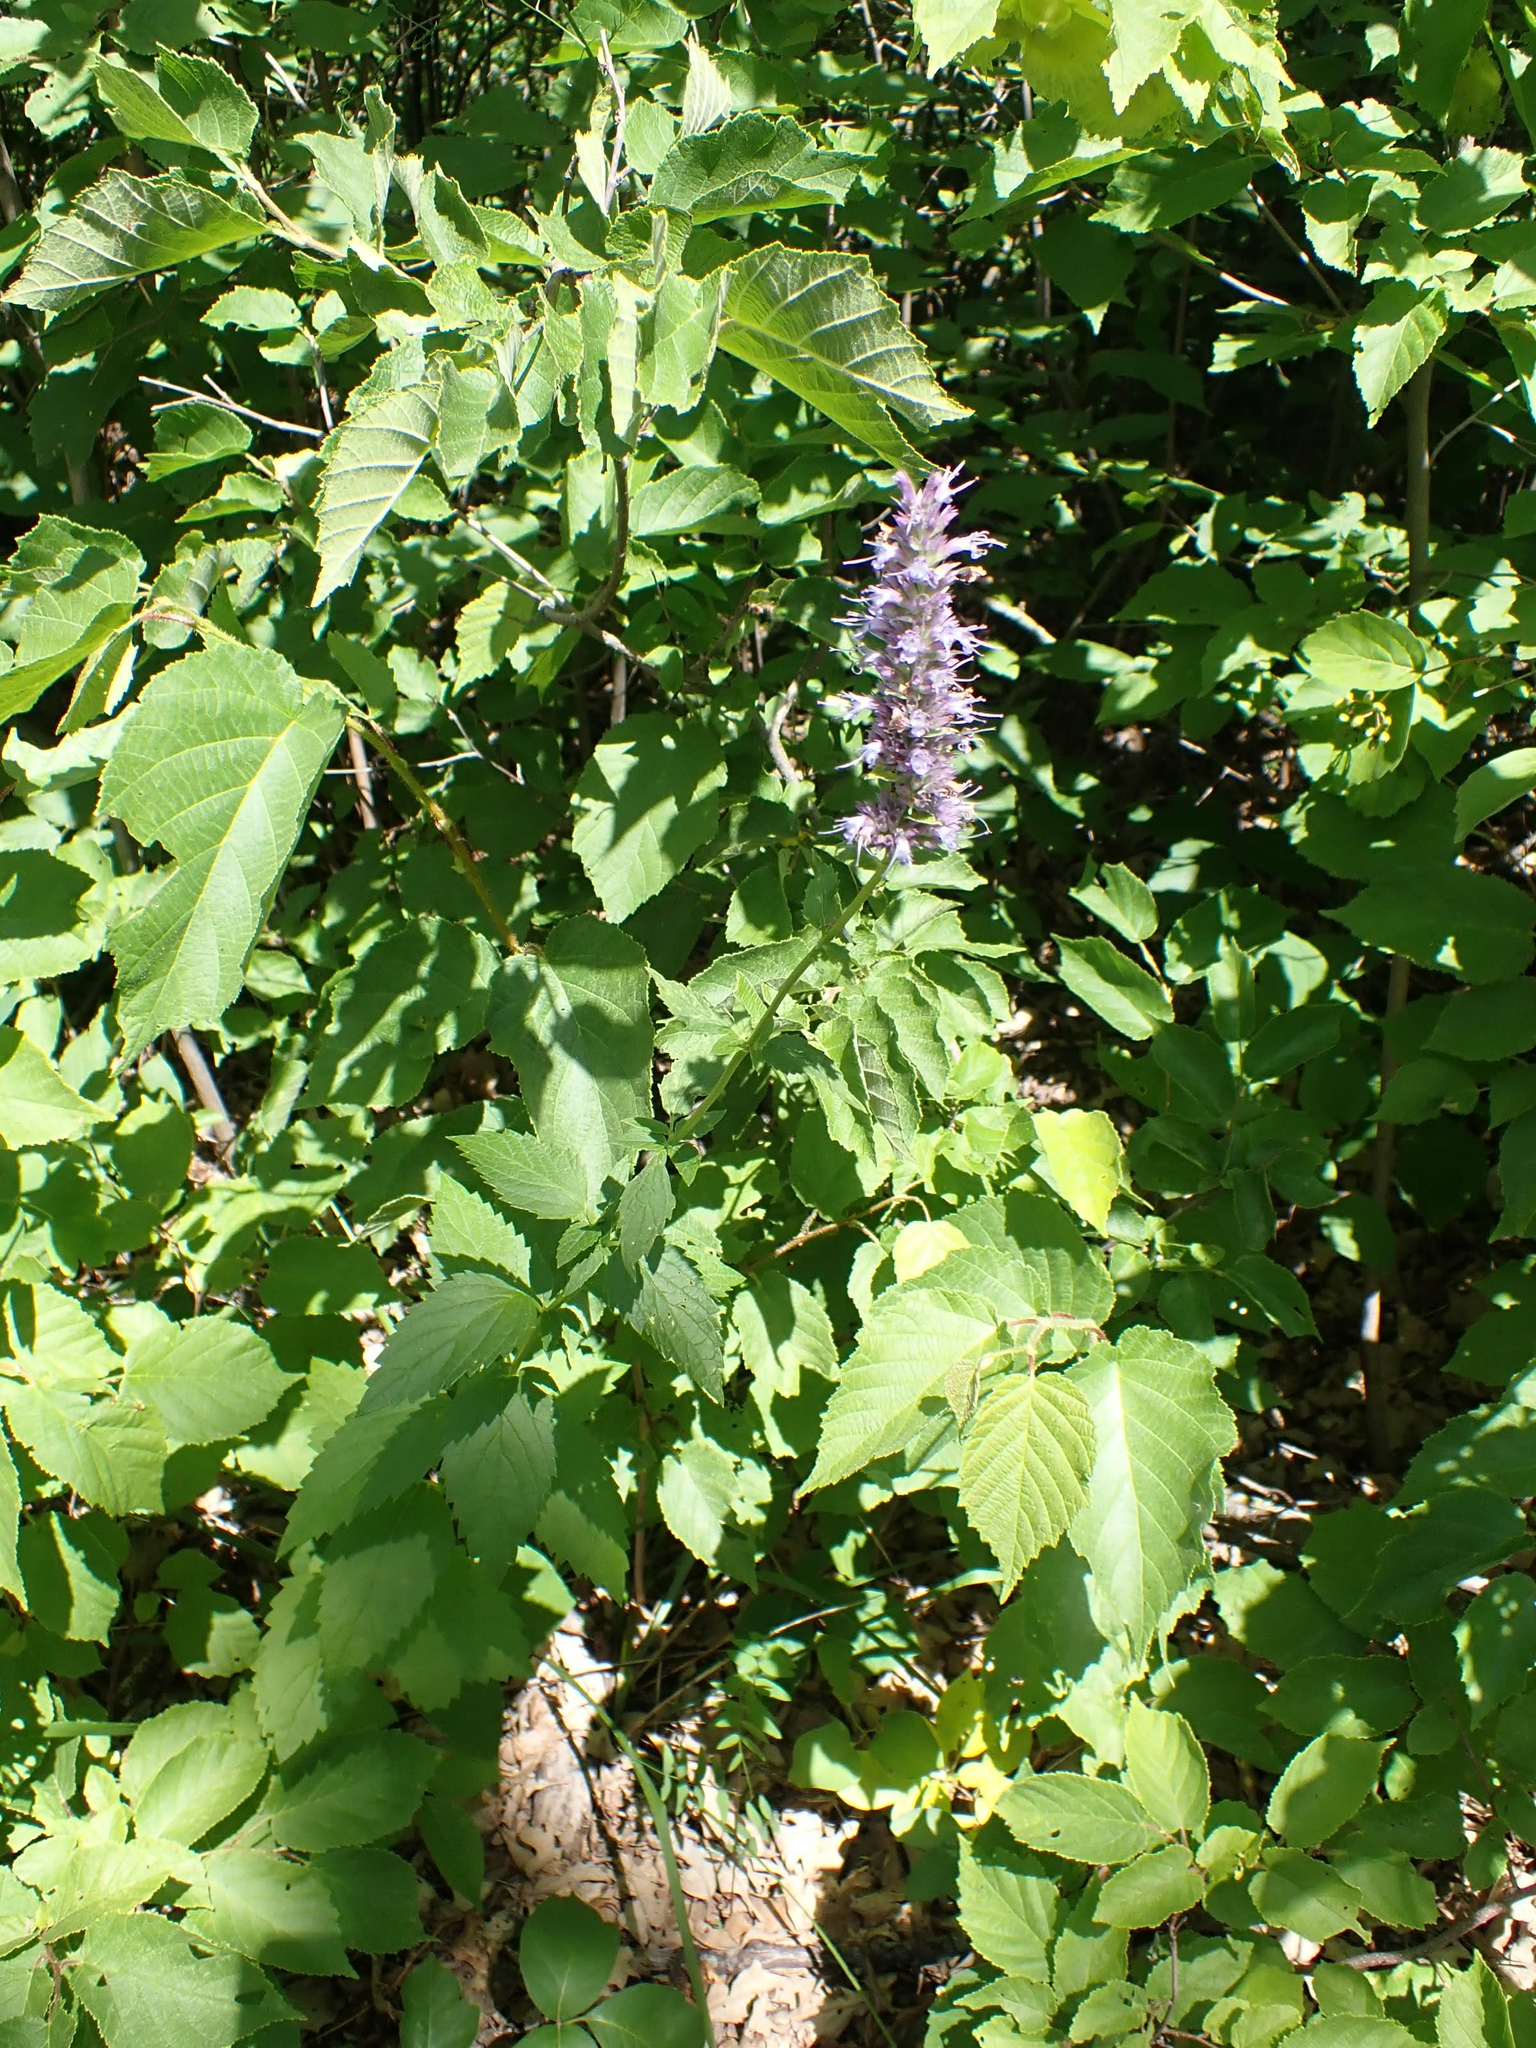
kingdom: Plantae
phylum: Tracheophyta
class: Magnoliopsida
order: Lamiales
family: Lamiaceae
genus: Agastache
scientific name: Agastache foeniculum
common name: Anise hyssop
